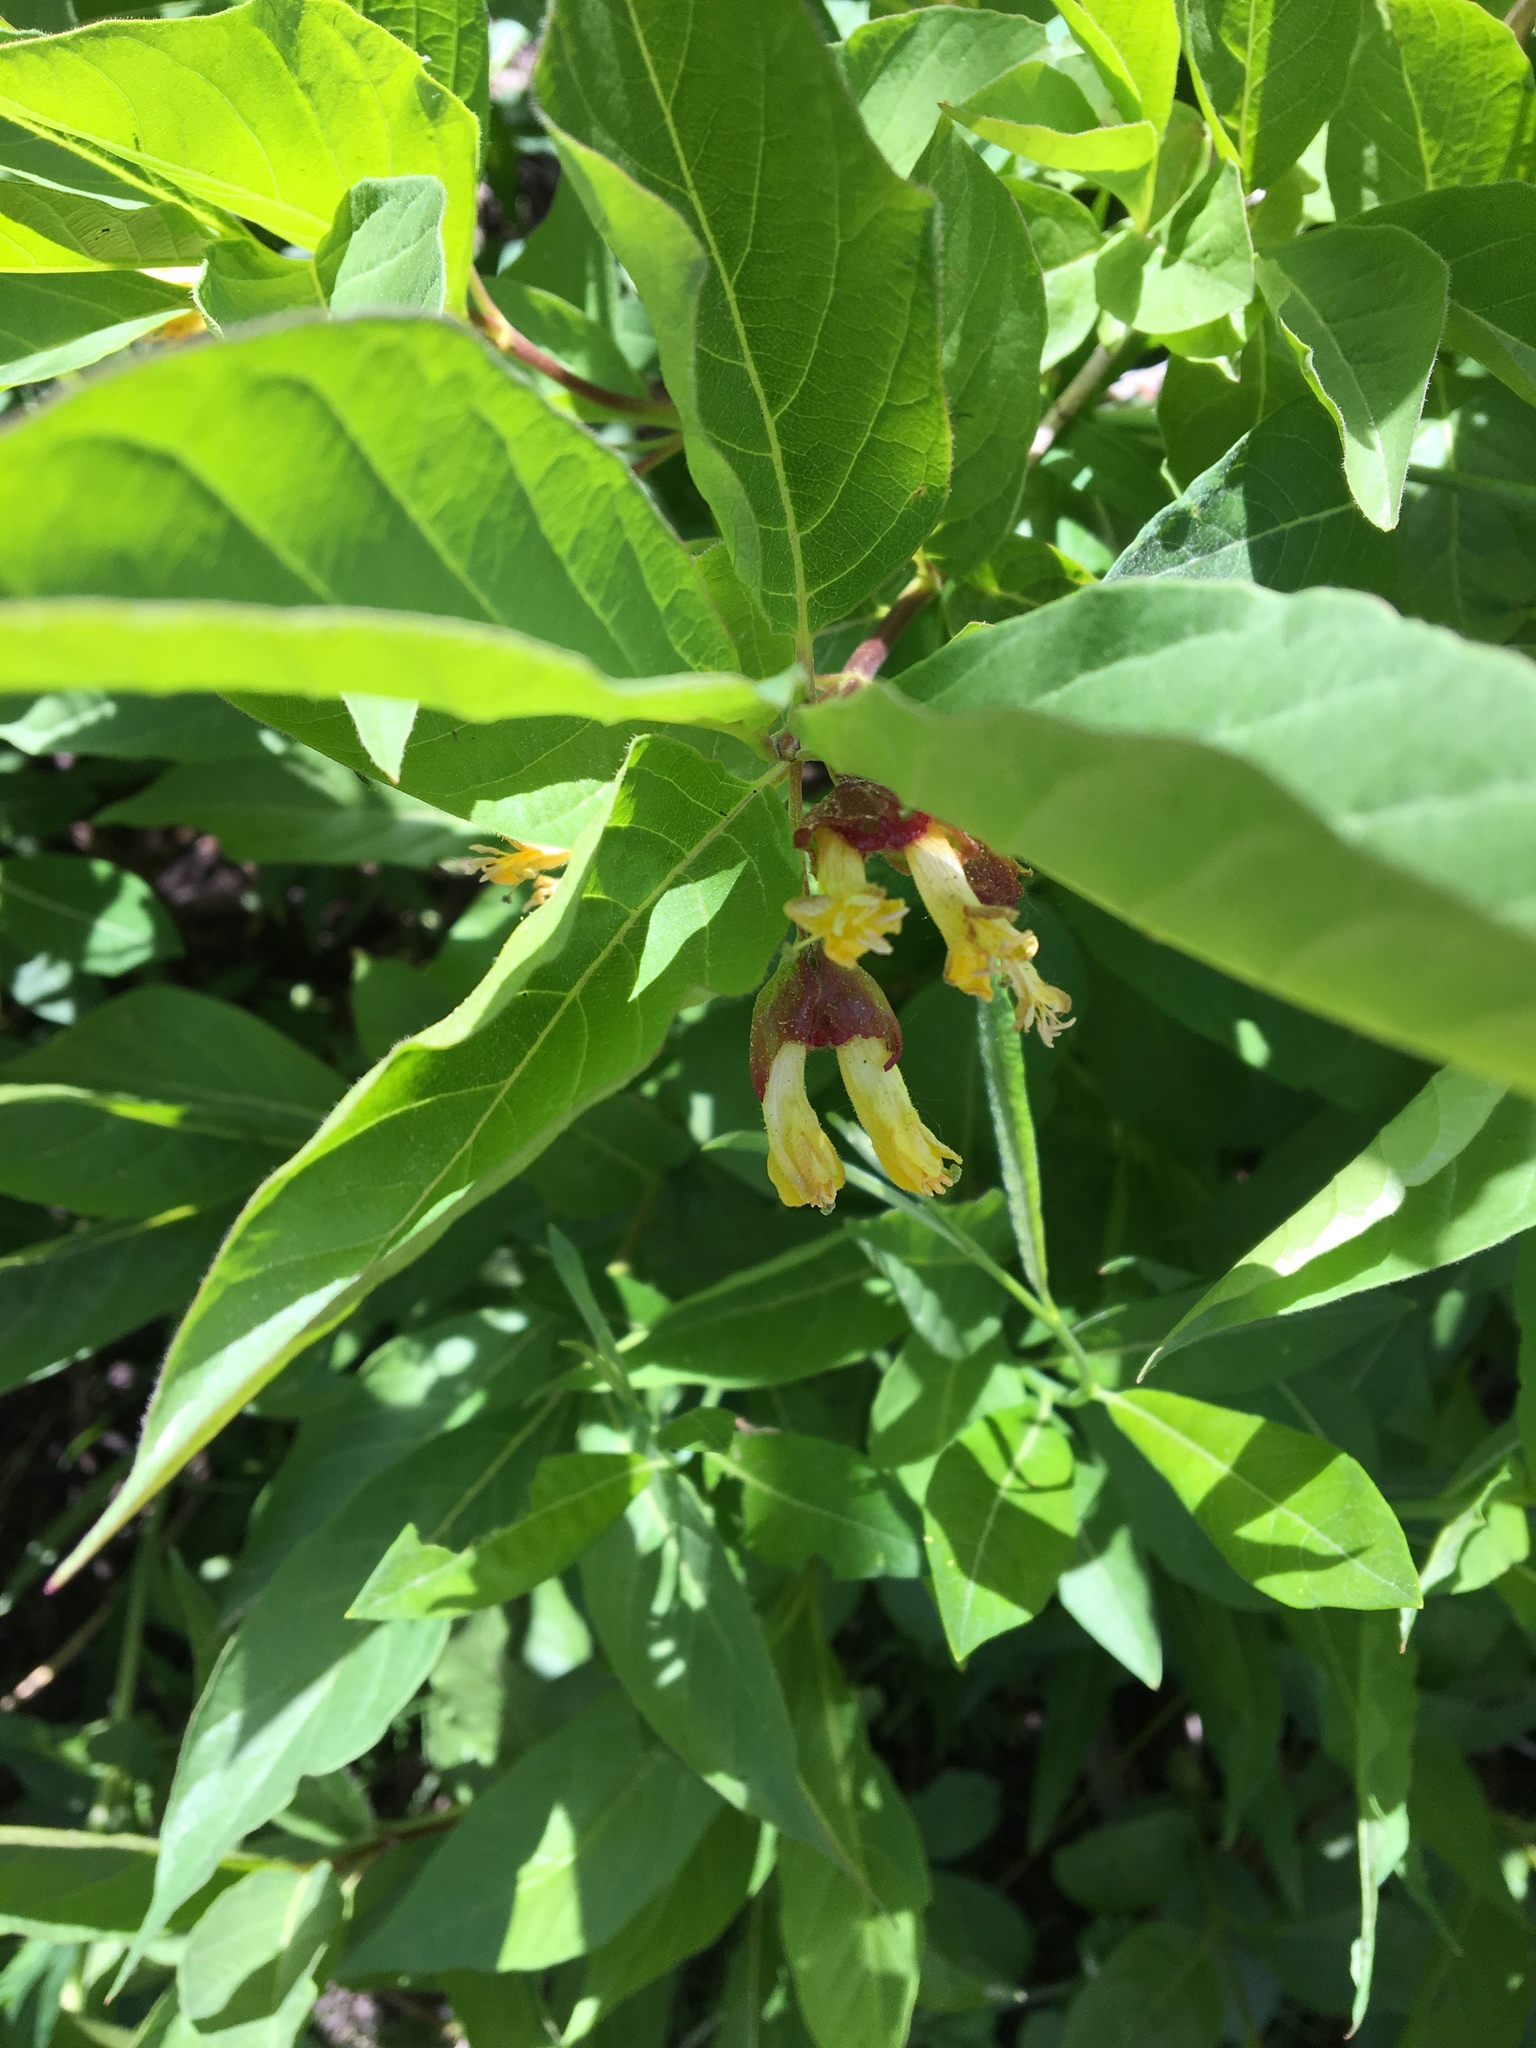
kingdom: Plantae
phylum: Tracheophyta
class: Magnoliopsida
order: Dipsacales
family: Caprifoliaceae
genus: Lonicera
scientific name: Lonicera involucrata
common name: Californian honeysuckle
